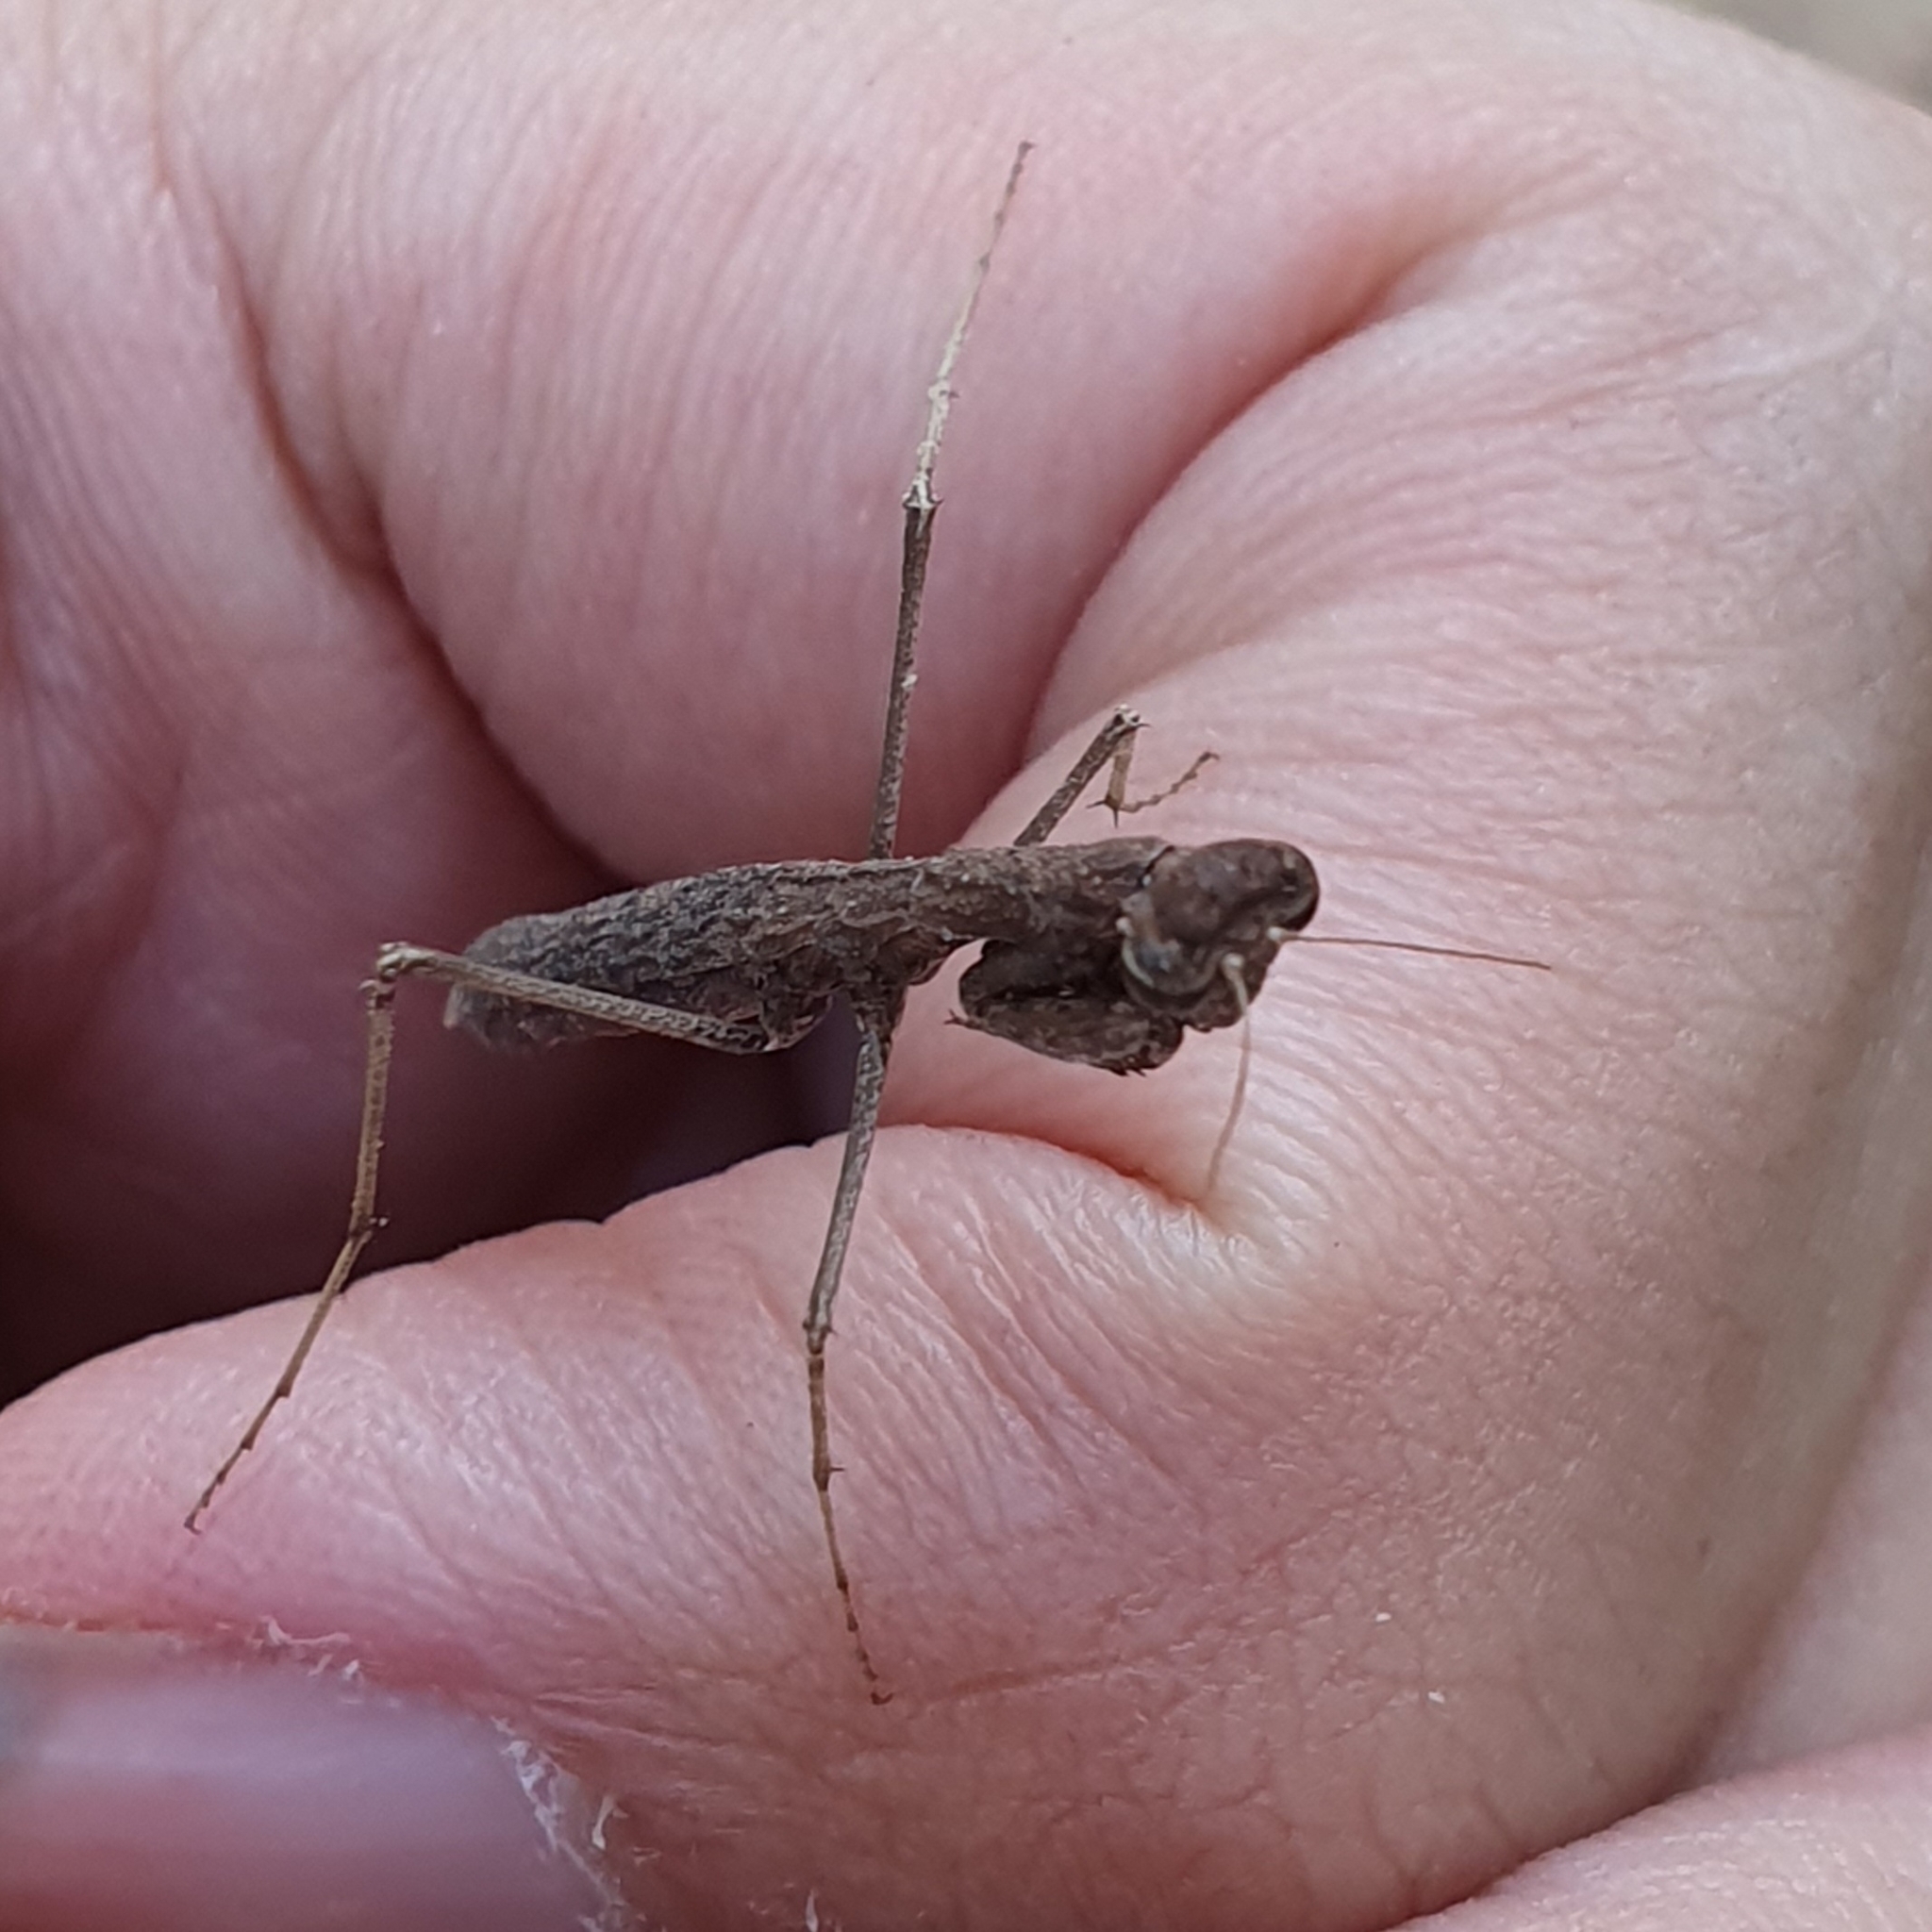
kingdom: Animalia
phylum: Arthropoda
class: Insecta
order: Mantodea
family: Rivetinidae
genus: Geomantis
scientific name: Geomantis larvoides
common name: Wingless ground mantis
